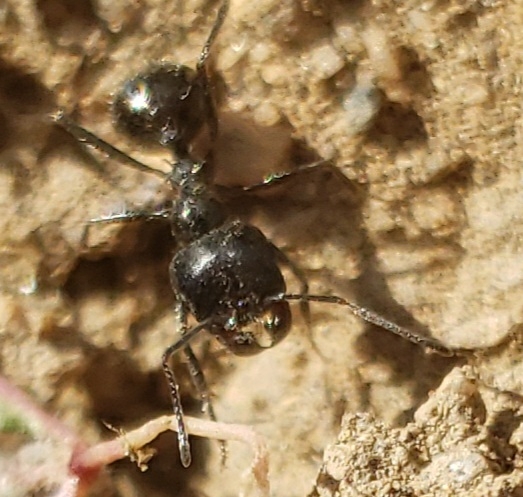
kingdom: Animalia
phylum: Arthropoda
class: Insecta
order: Hymenoptera
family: Formicidae
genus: Messor
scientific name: Messor pergandei
